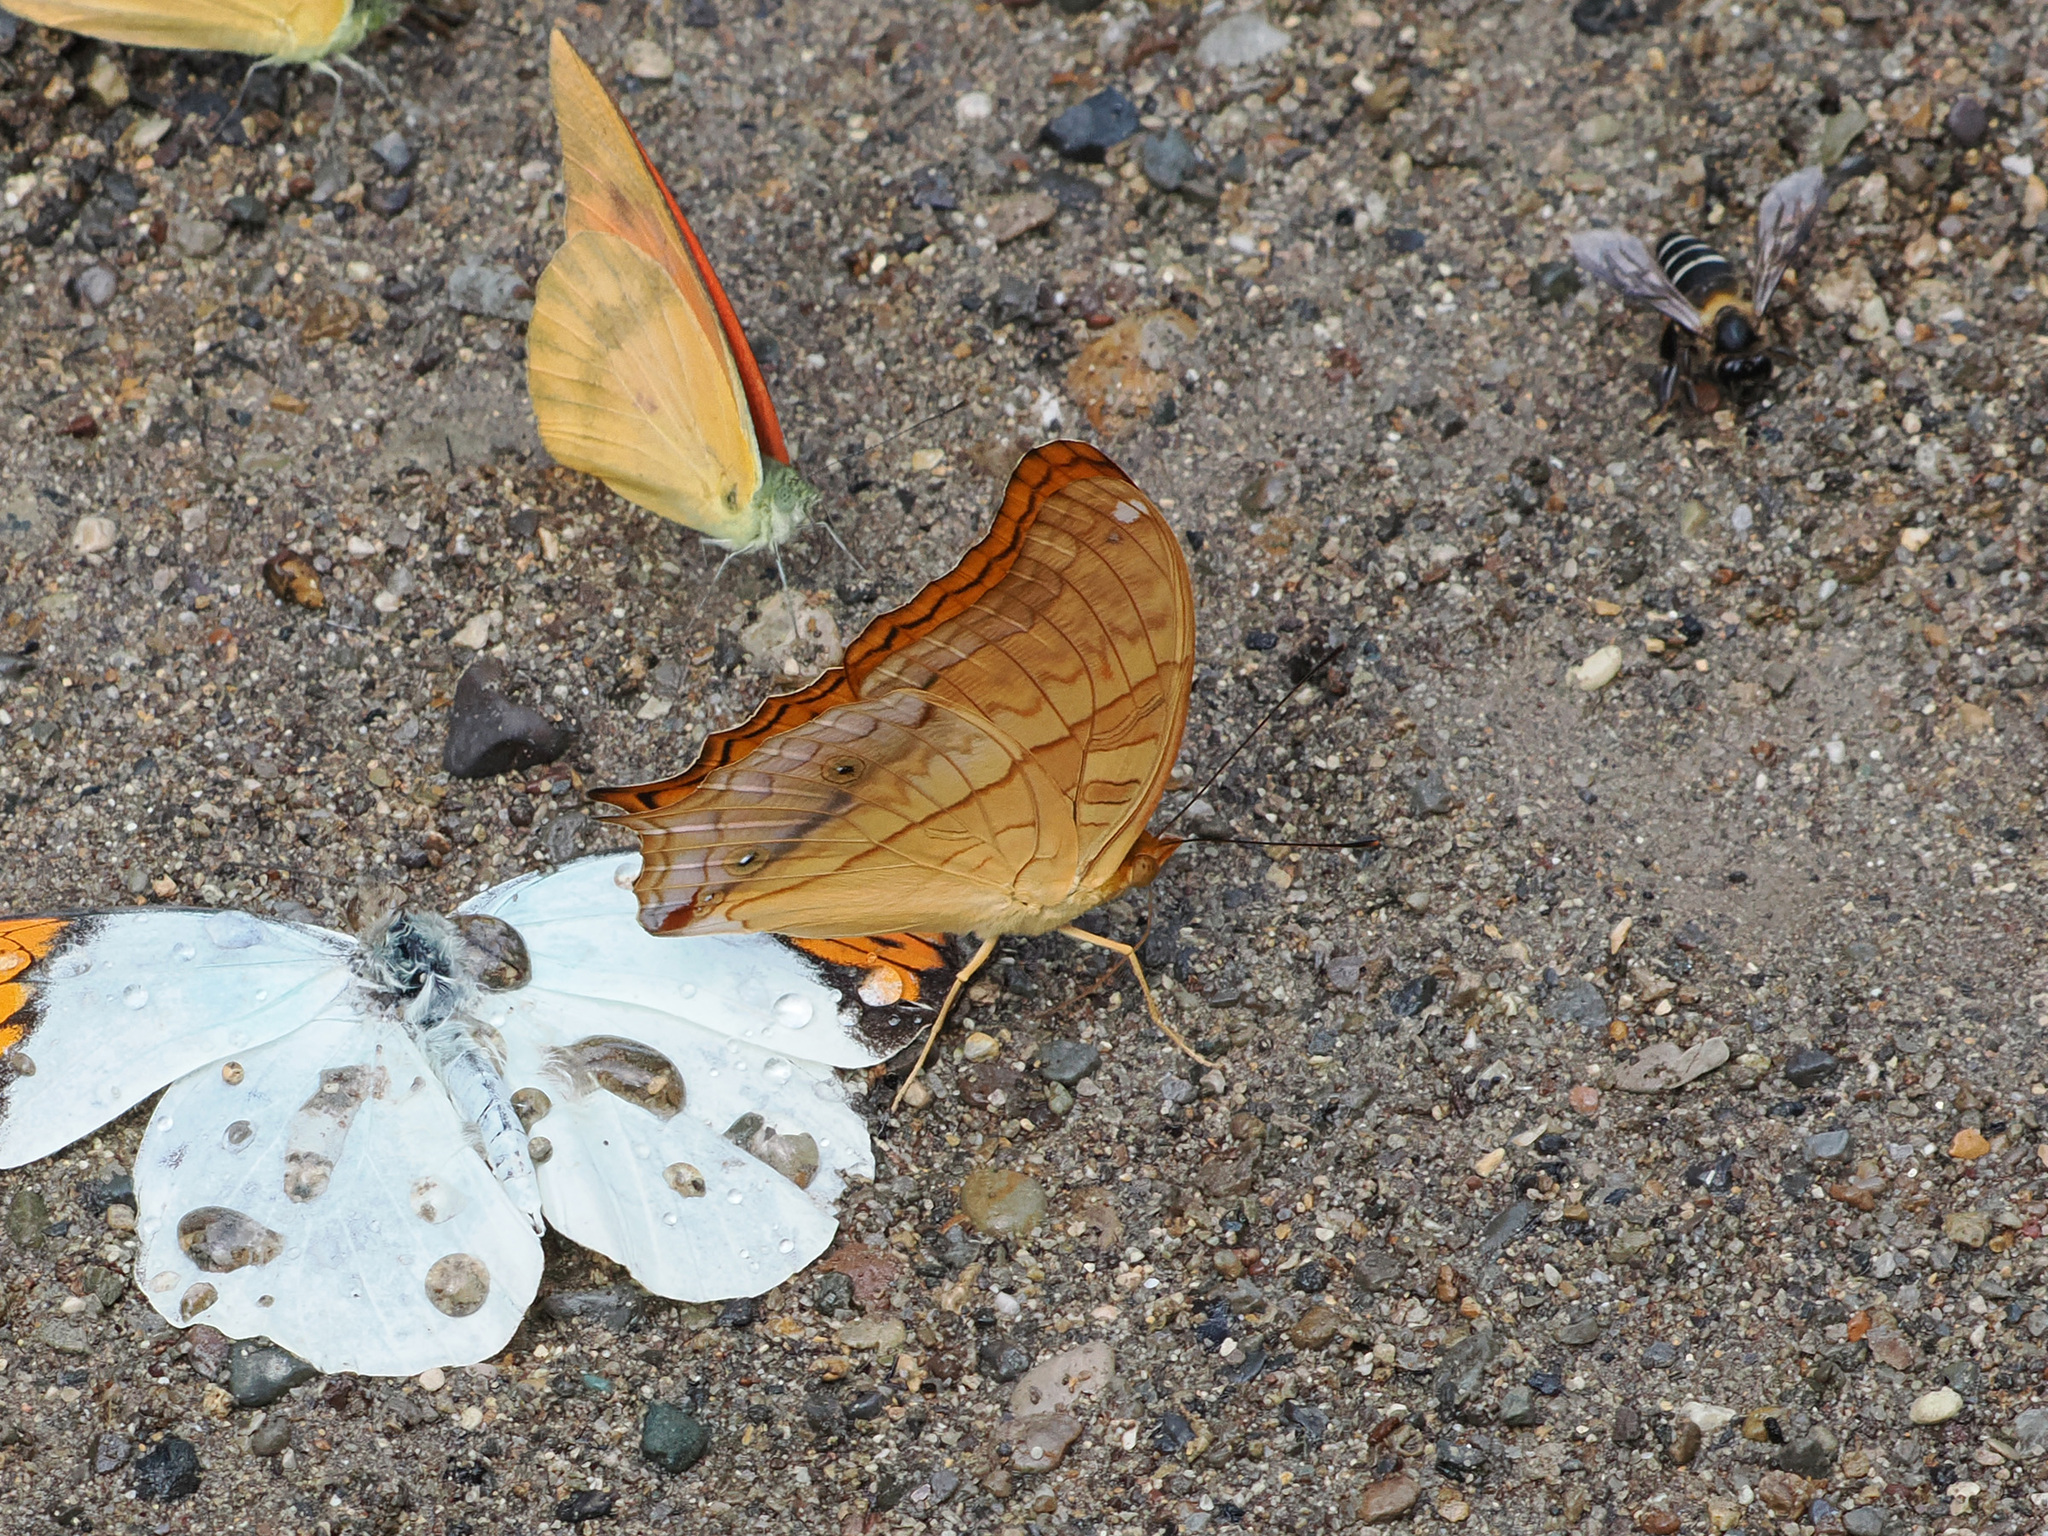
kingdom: Animalia
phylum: Arthropoda
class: Insecta
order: Lepidoptera
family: Nymphalidae
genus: Vindula
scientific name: Vindula deione
